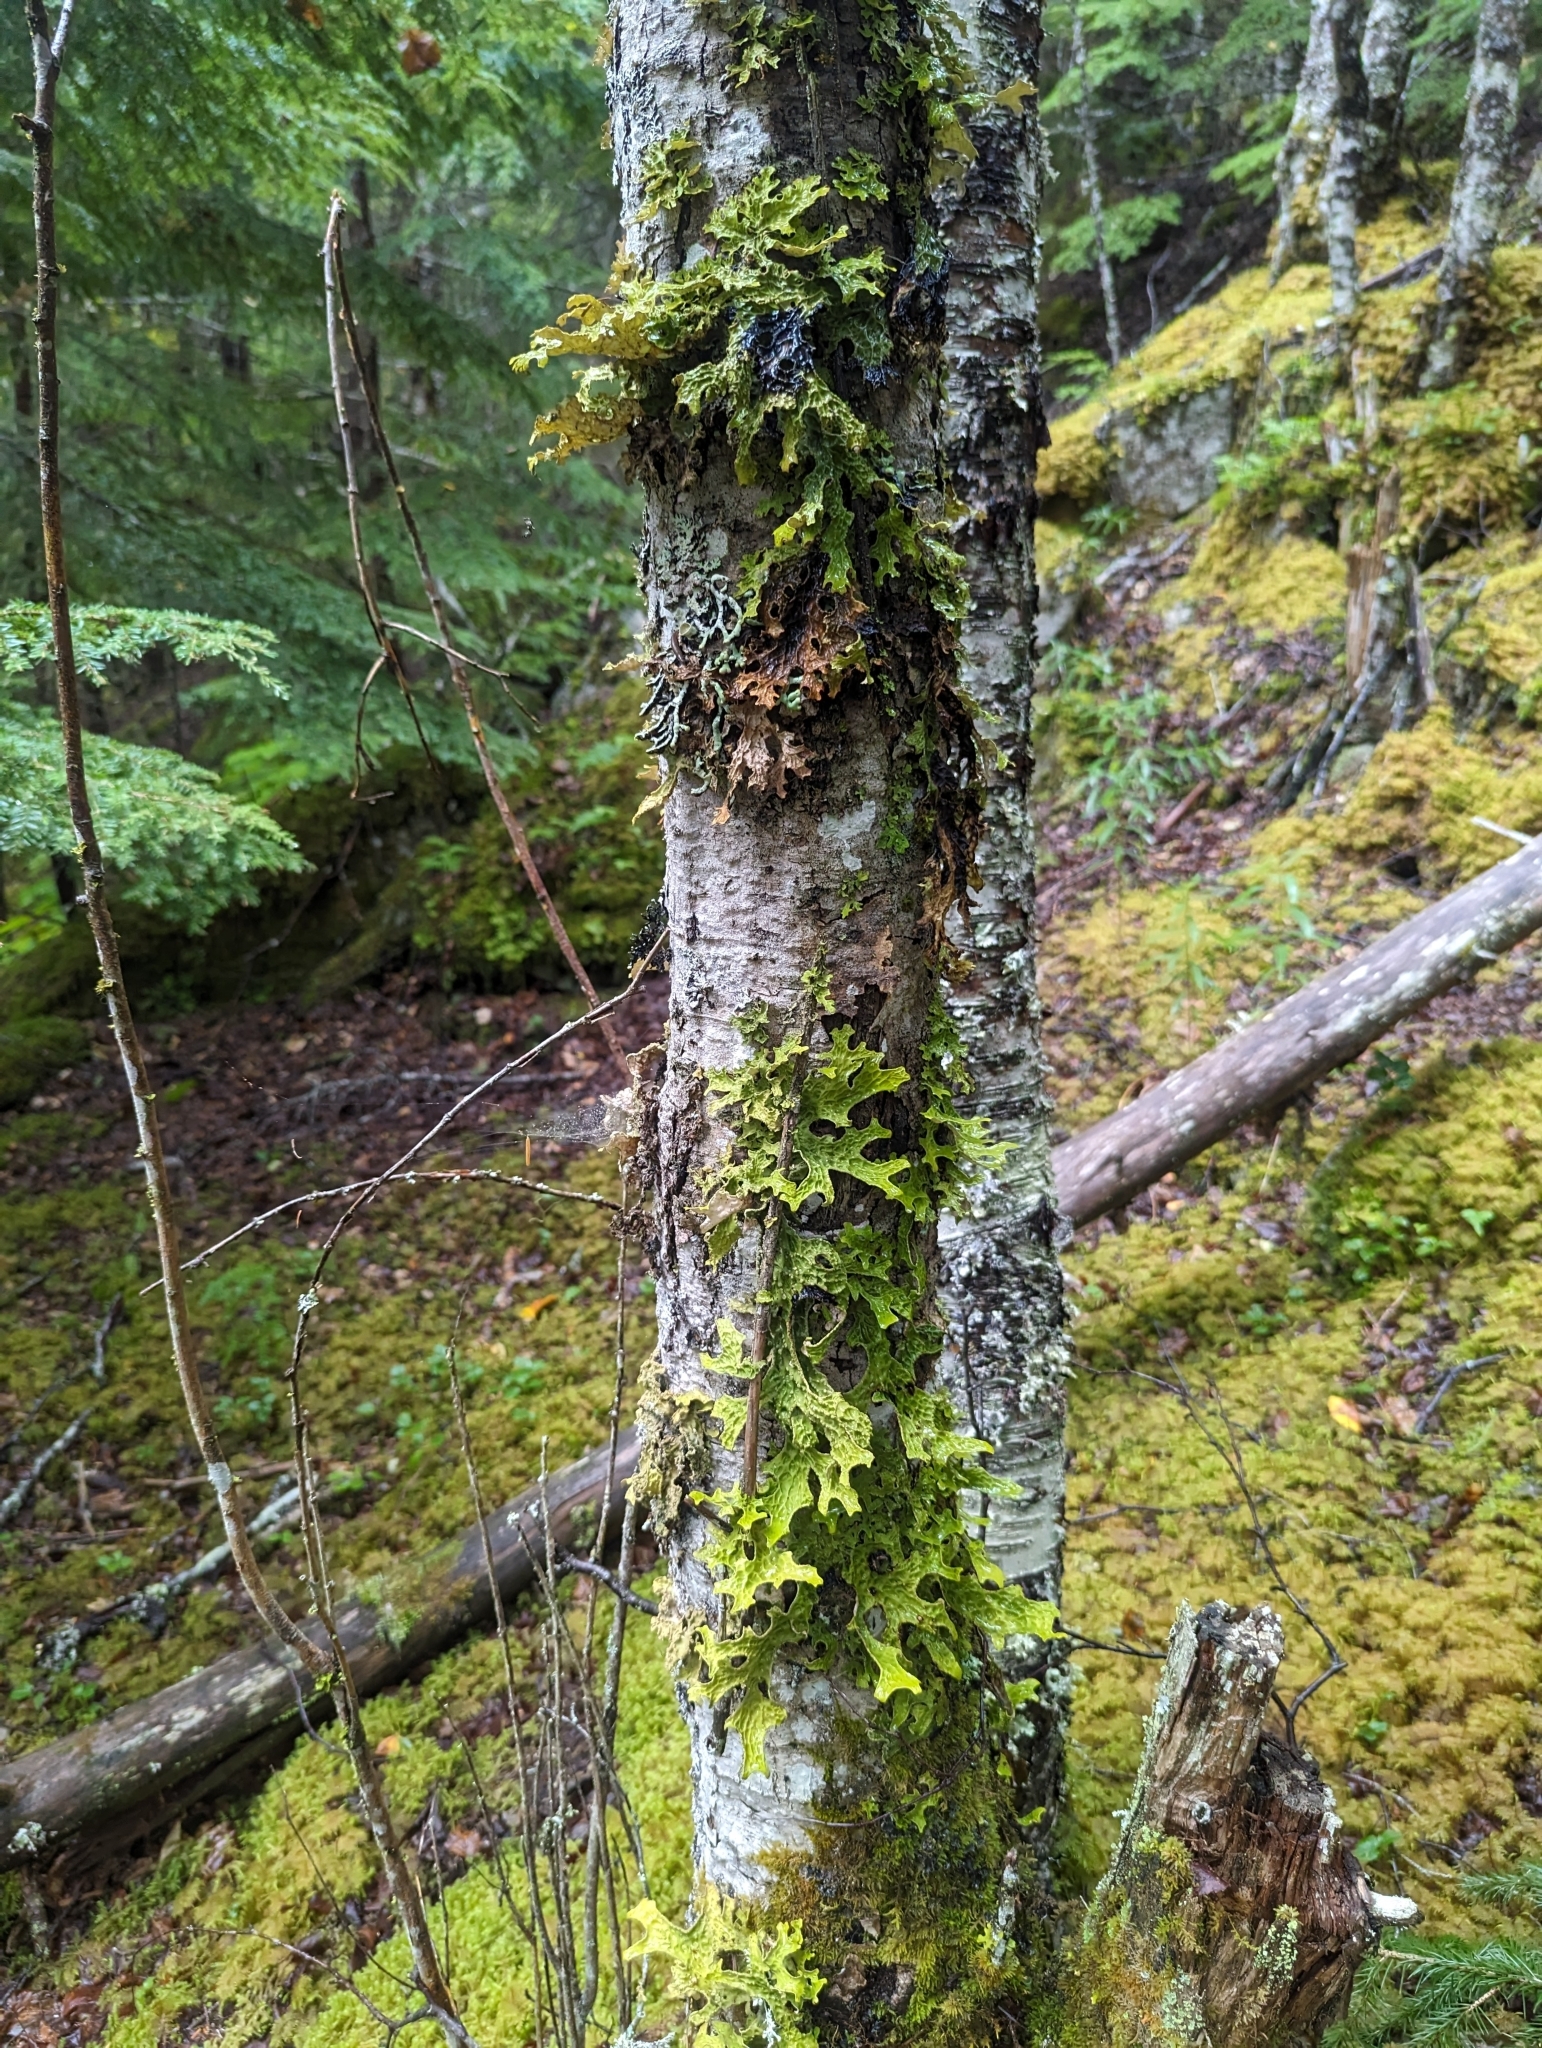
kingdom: Fungi
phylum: Ascomycota
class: Lecanoromycetes
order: Peltigerales
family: Lobariaceae
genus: Lobaria
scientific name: Lobaria pulmonaria
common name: Lungwort
